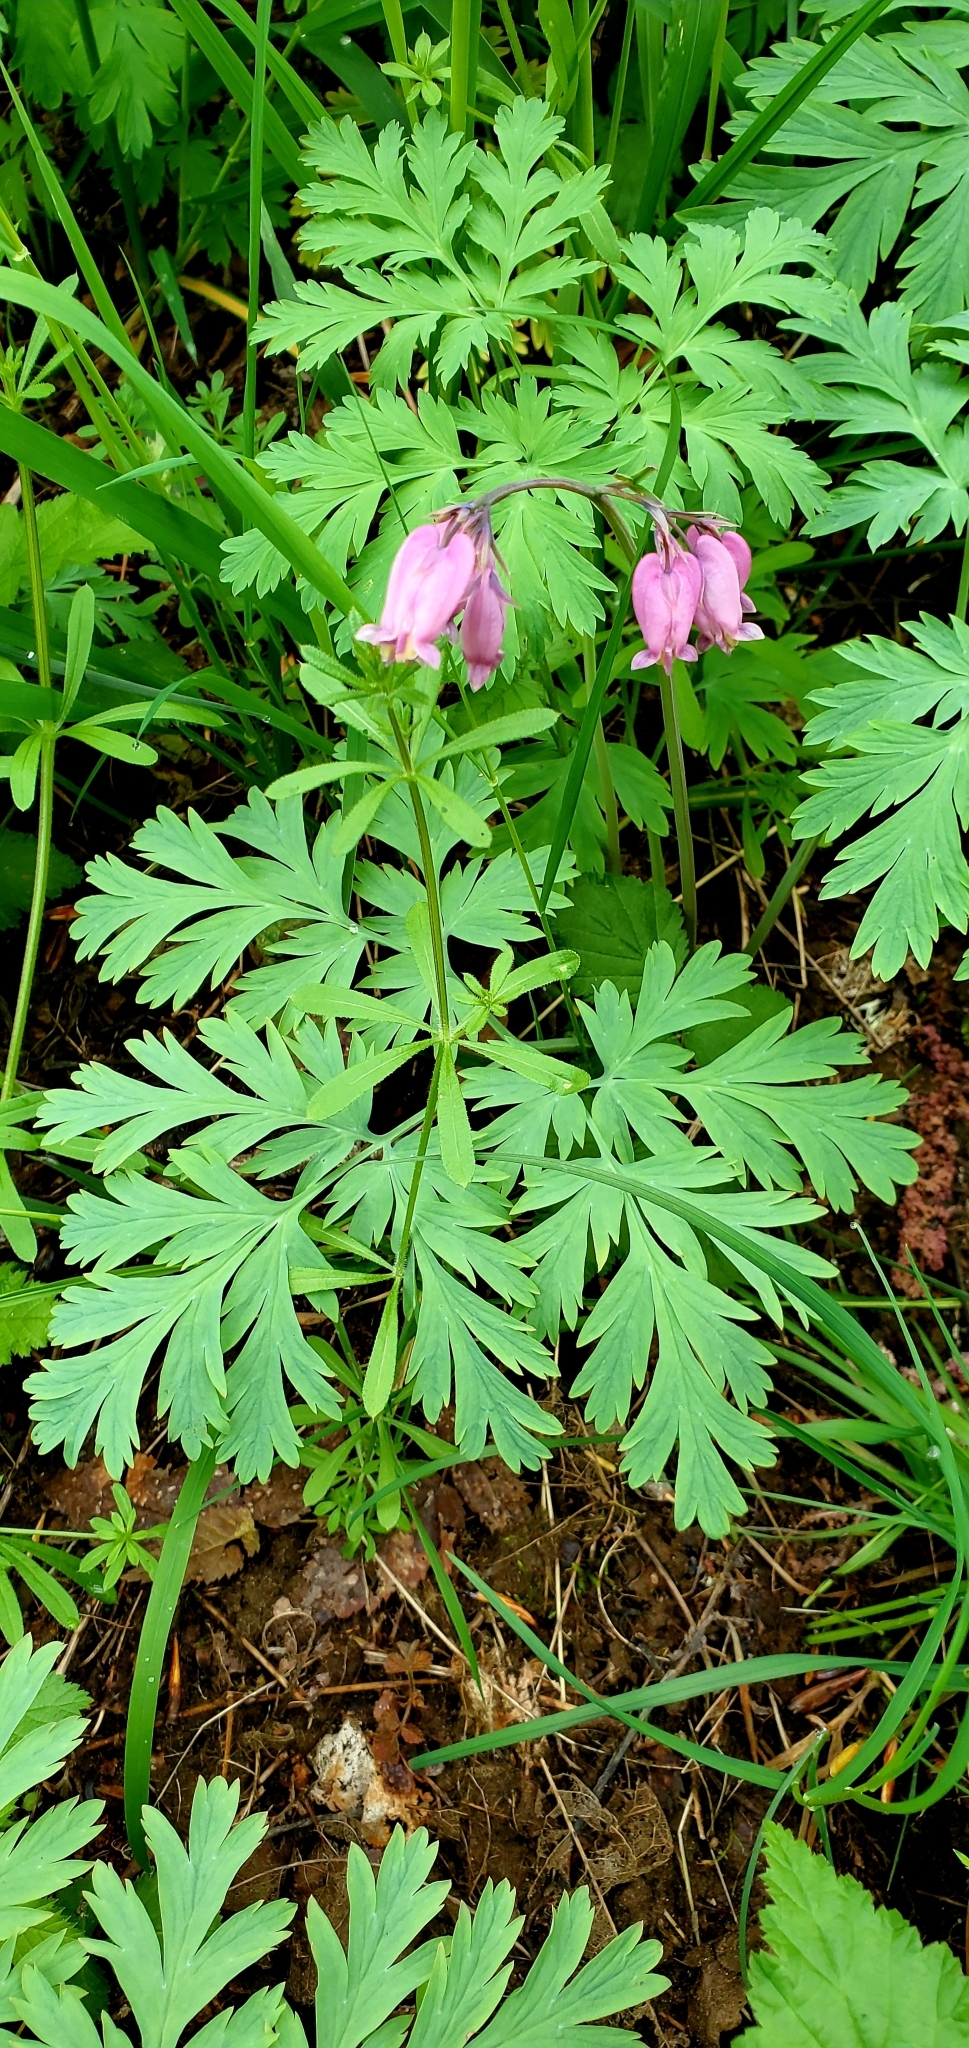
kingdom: Plantae
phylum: Tracheophyta
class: Magnoliopsida
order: Ranunculales
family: Papaveraceae
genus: Dicentra
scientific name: Dicentra formosa
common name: Bleeding-heart
